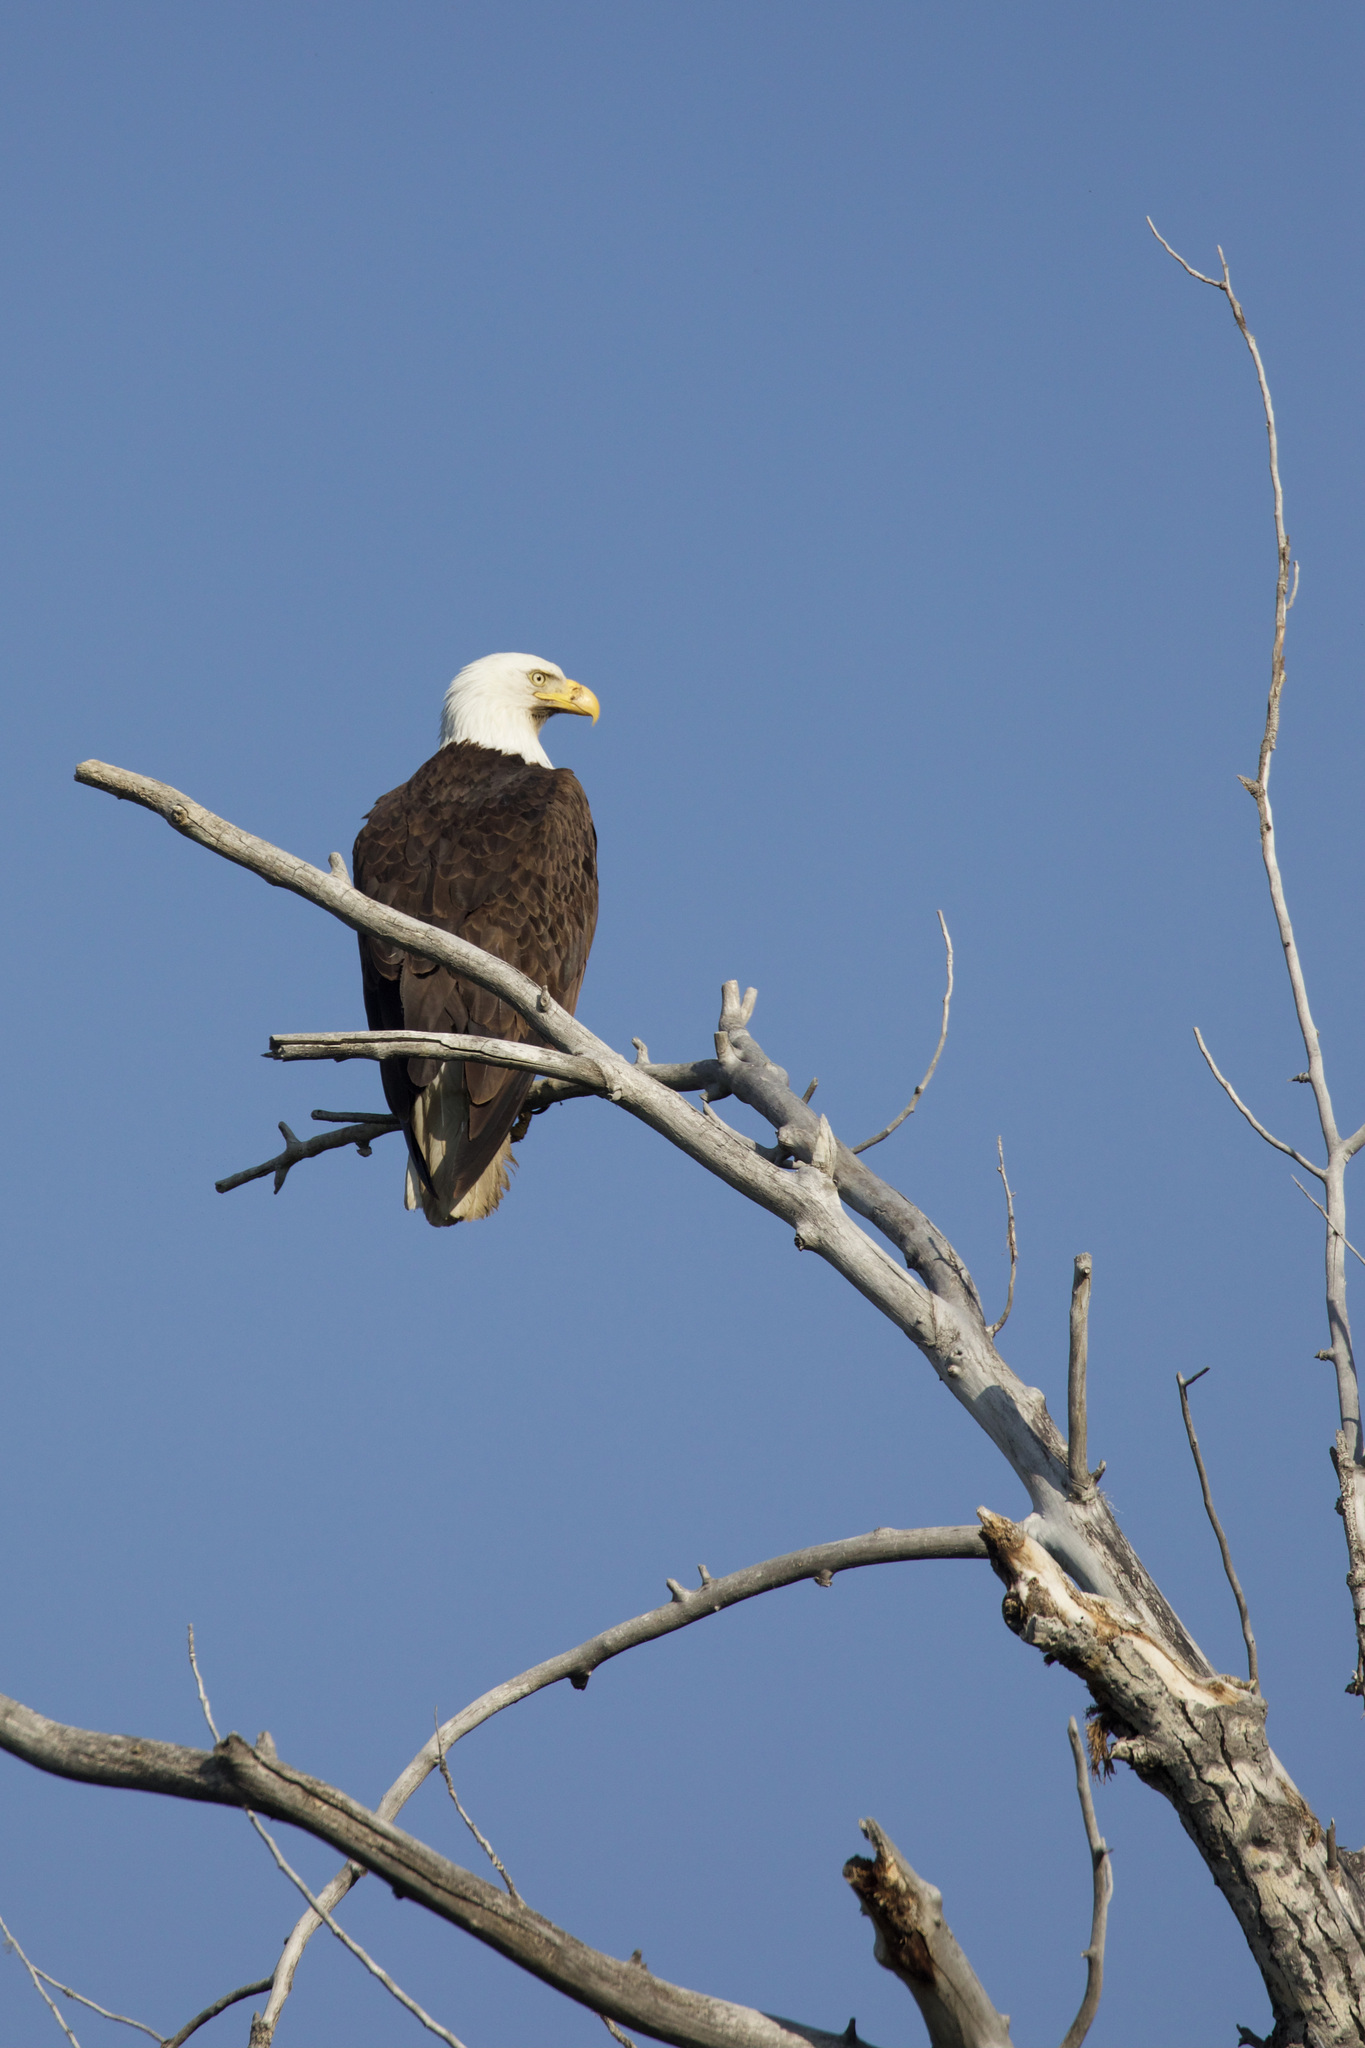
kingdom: Animalia
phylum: Chordata
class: Aves
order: Accipitriformes
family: Accipitridae
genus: Haliaeetus
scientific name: Haliaeetus leucocephalus
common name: Bald eagle
